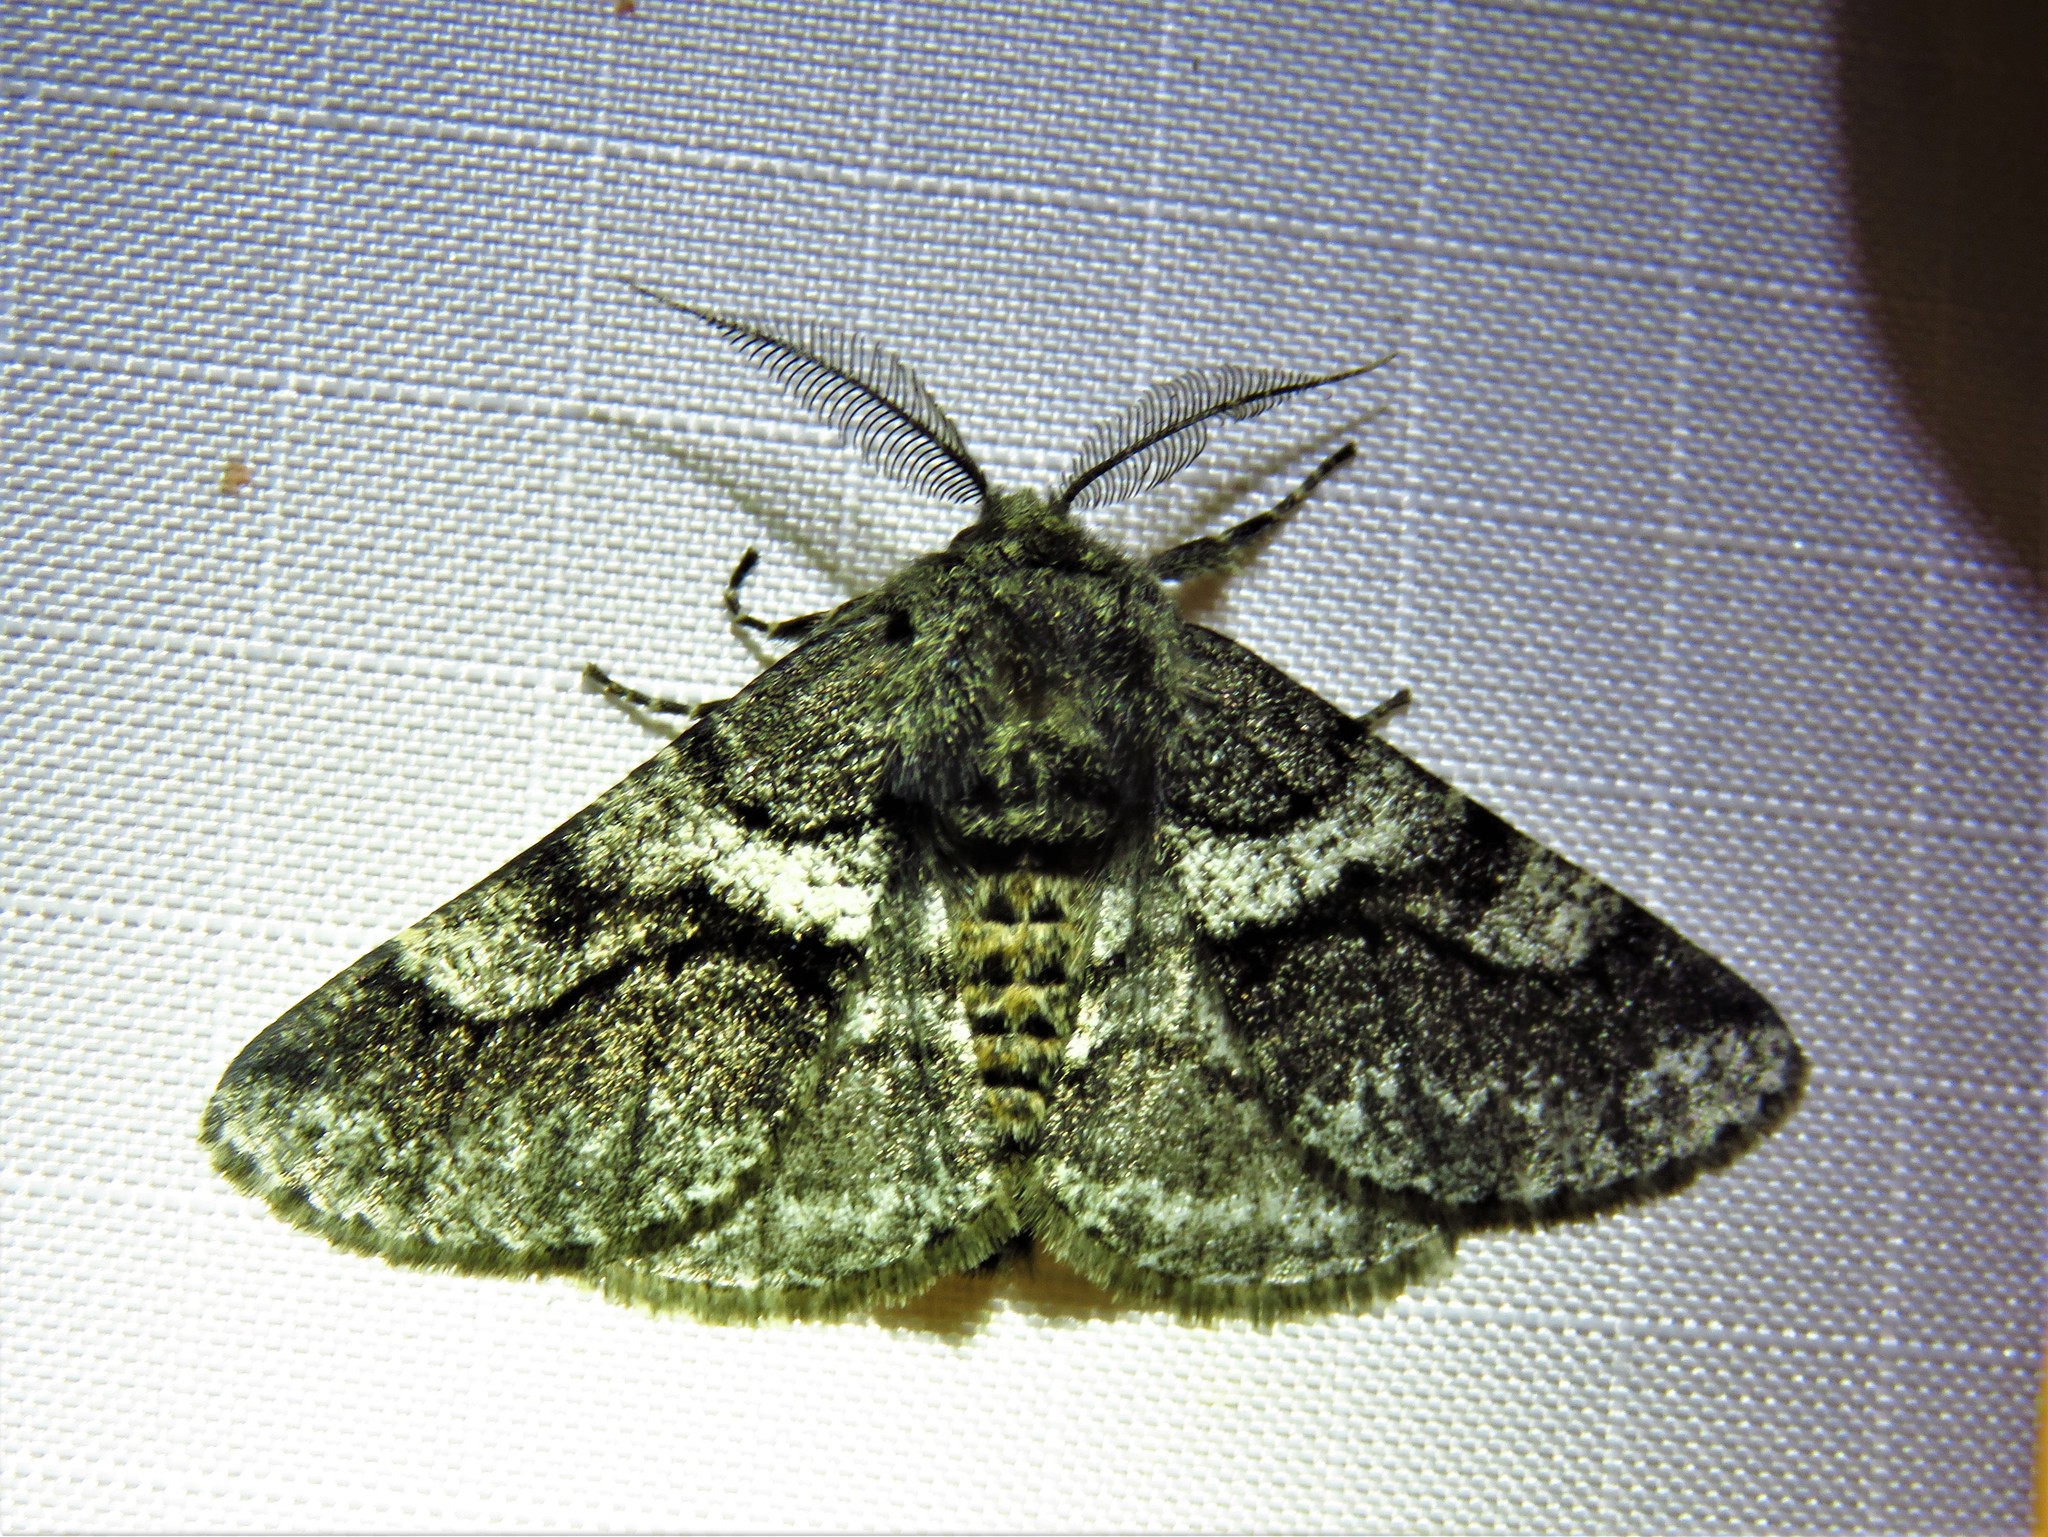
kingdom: Animalia
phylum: Arthropoda
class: Insecta
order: Lepidoptera
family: Geometridae
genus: Lycia
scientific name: Lycia ypsilon
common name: Wooly gray
